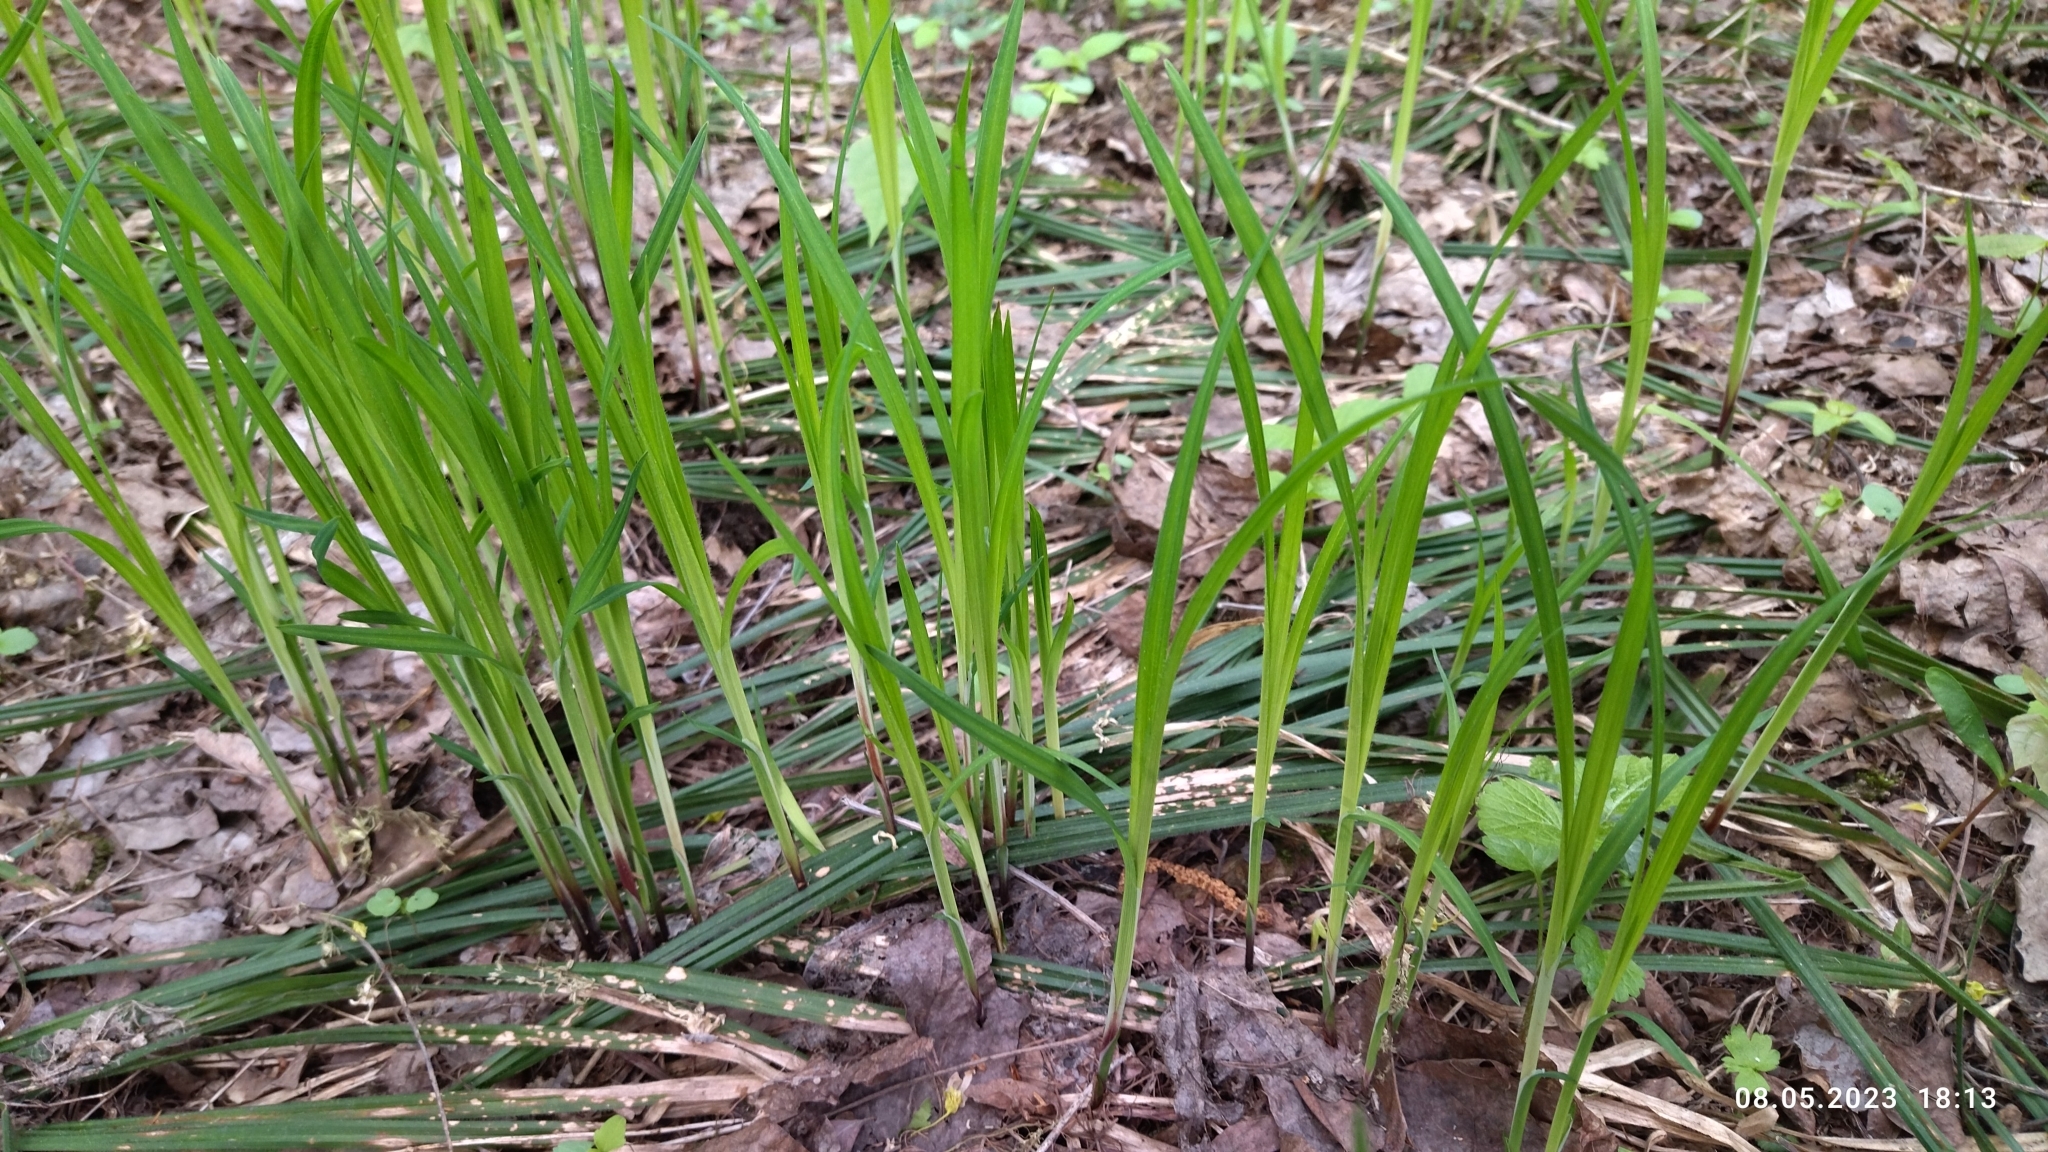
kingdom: Plantae
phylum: Tracheophyta
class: Liliopsida
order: Poales
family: Cyperaceae
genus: Carex
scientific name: Carex pilosa
